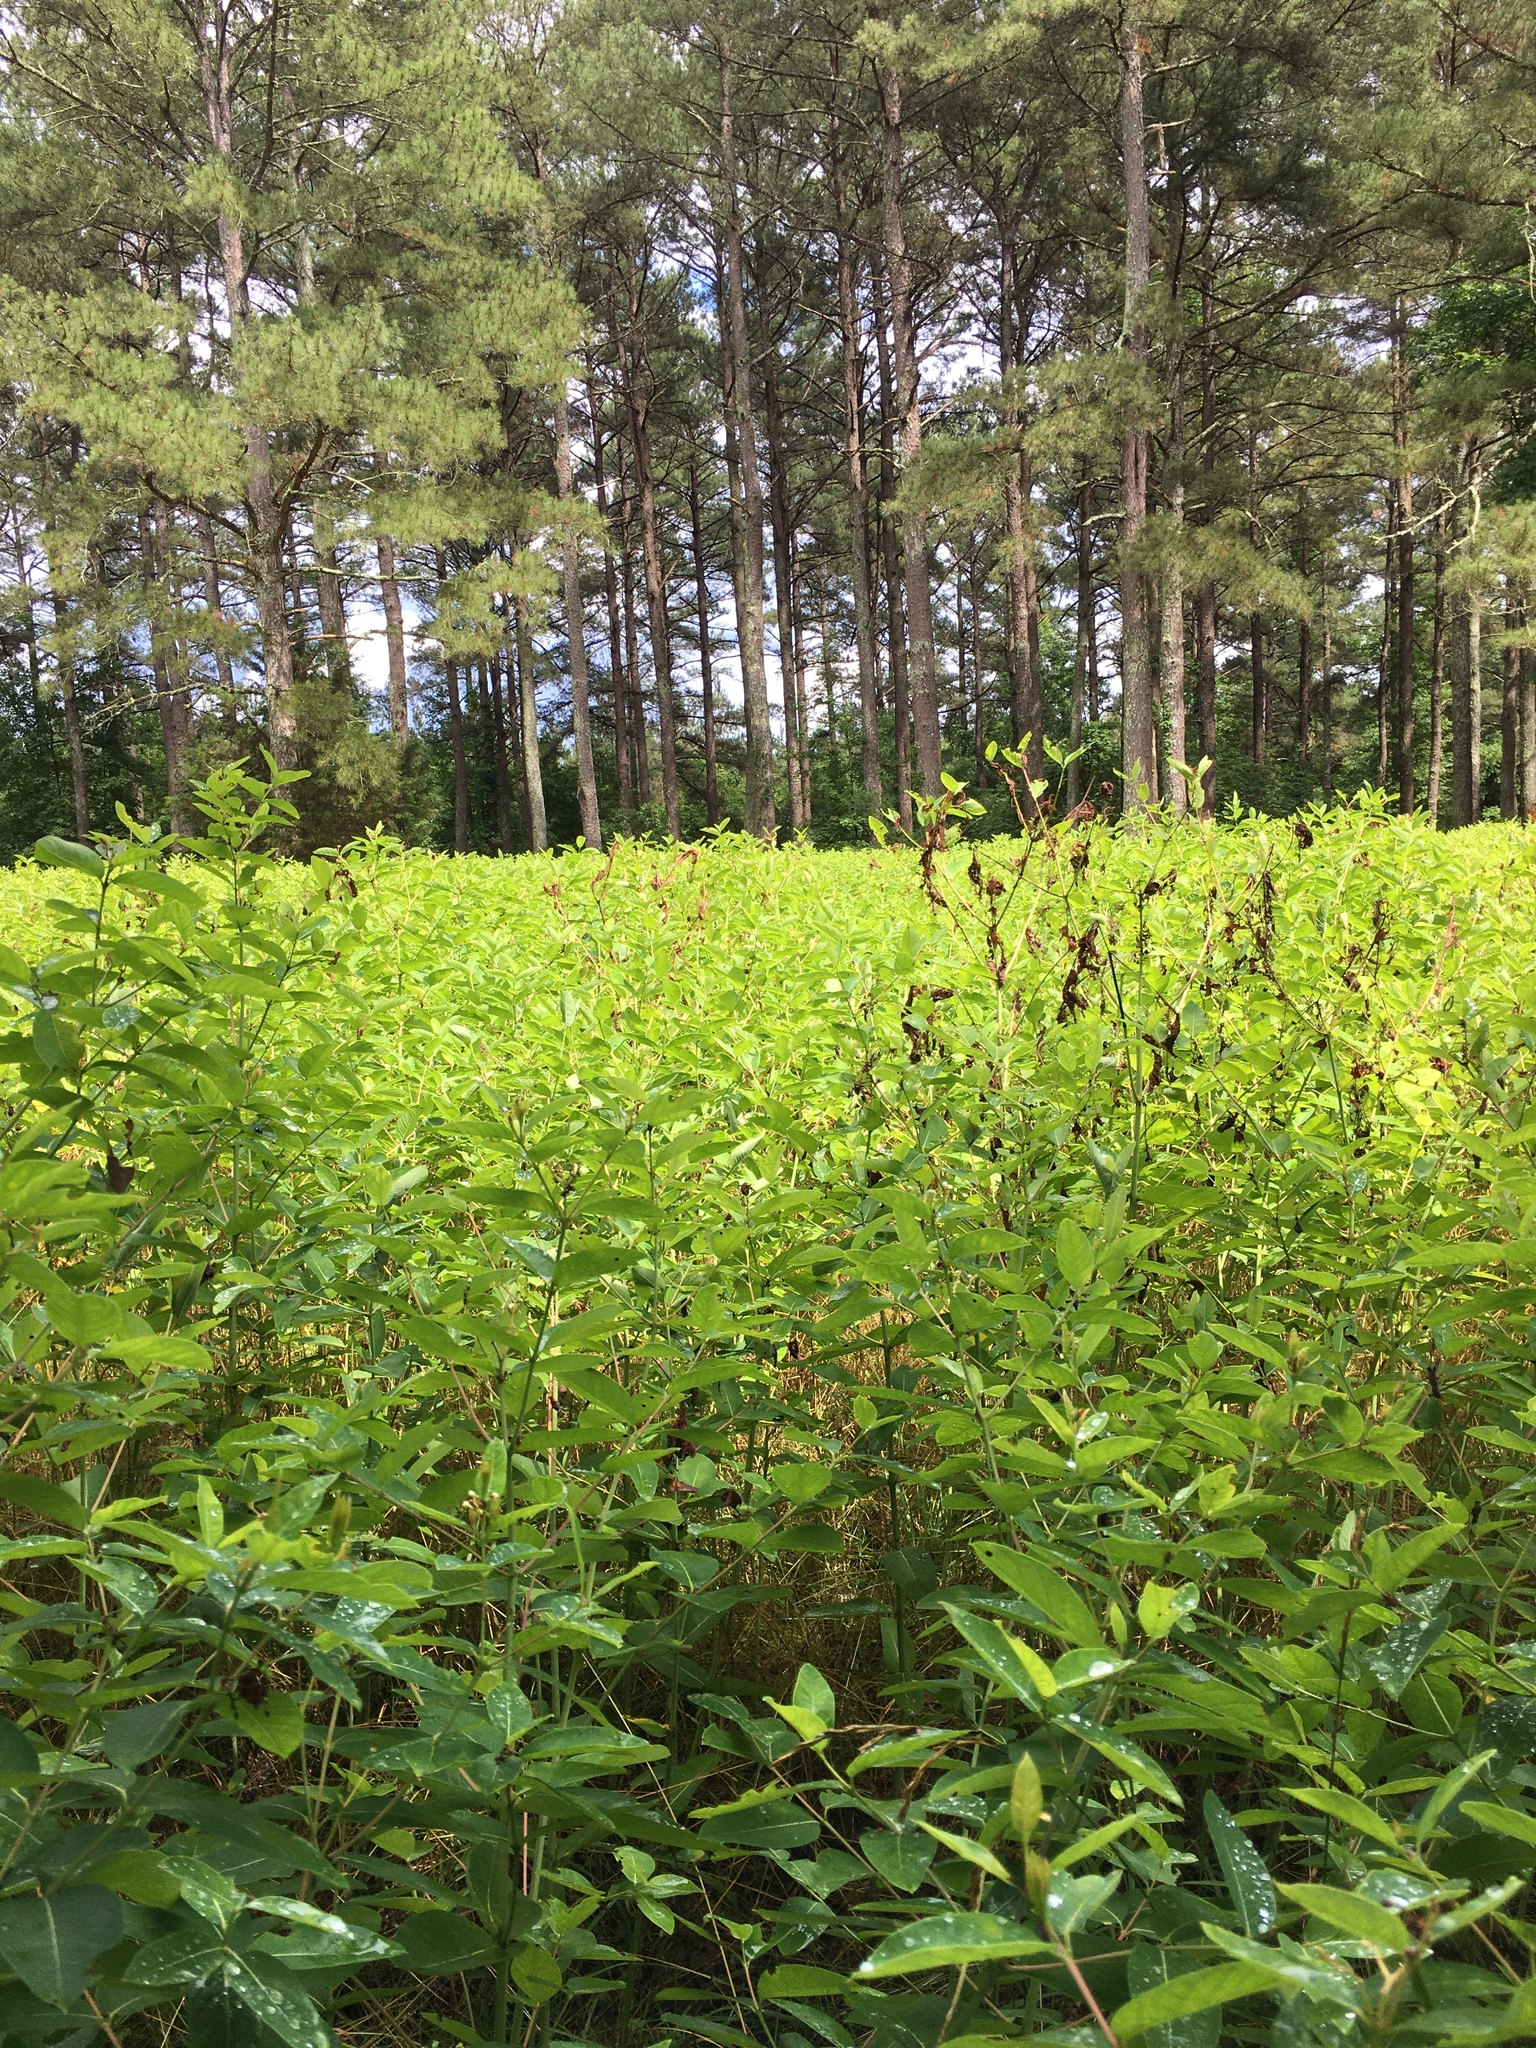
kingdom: Plantae
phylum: Tracheophyta
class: Magnoliopsida
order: Gentianales
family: Apocynaceae
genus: Apocynum
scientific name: Apocynum cannabinum
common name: Hemp dogbane
